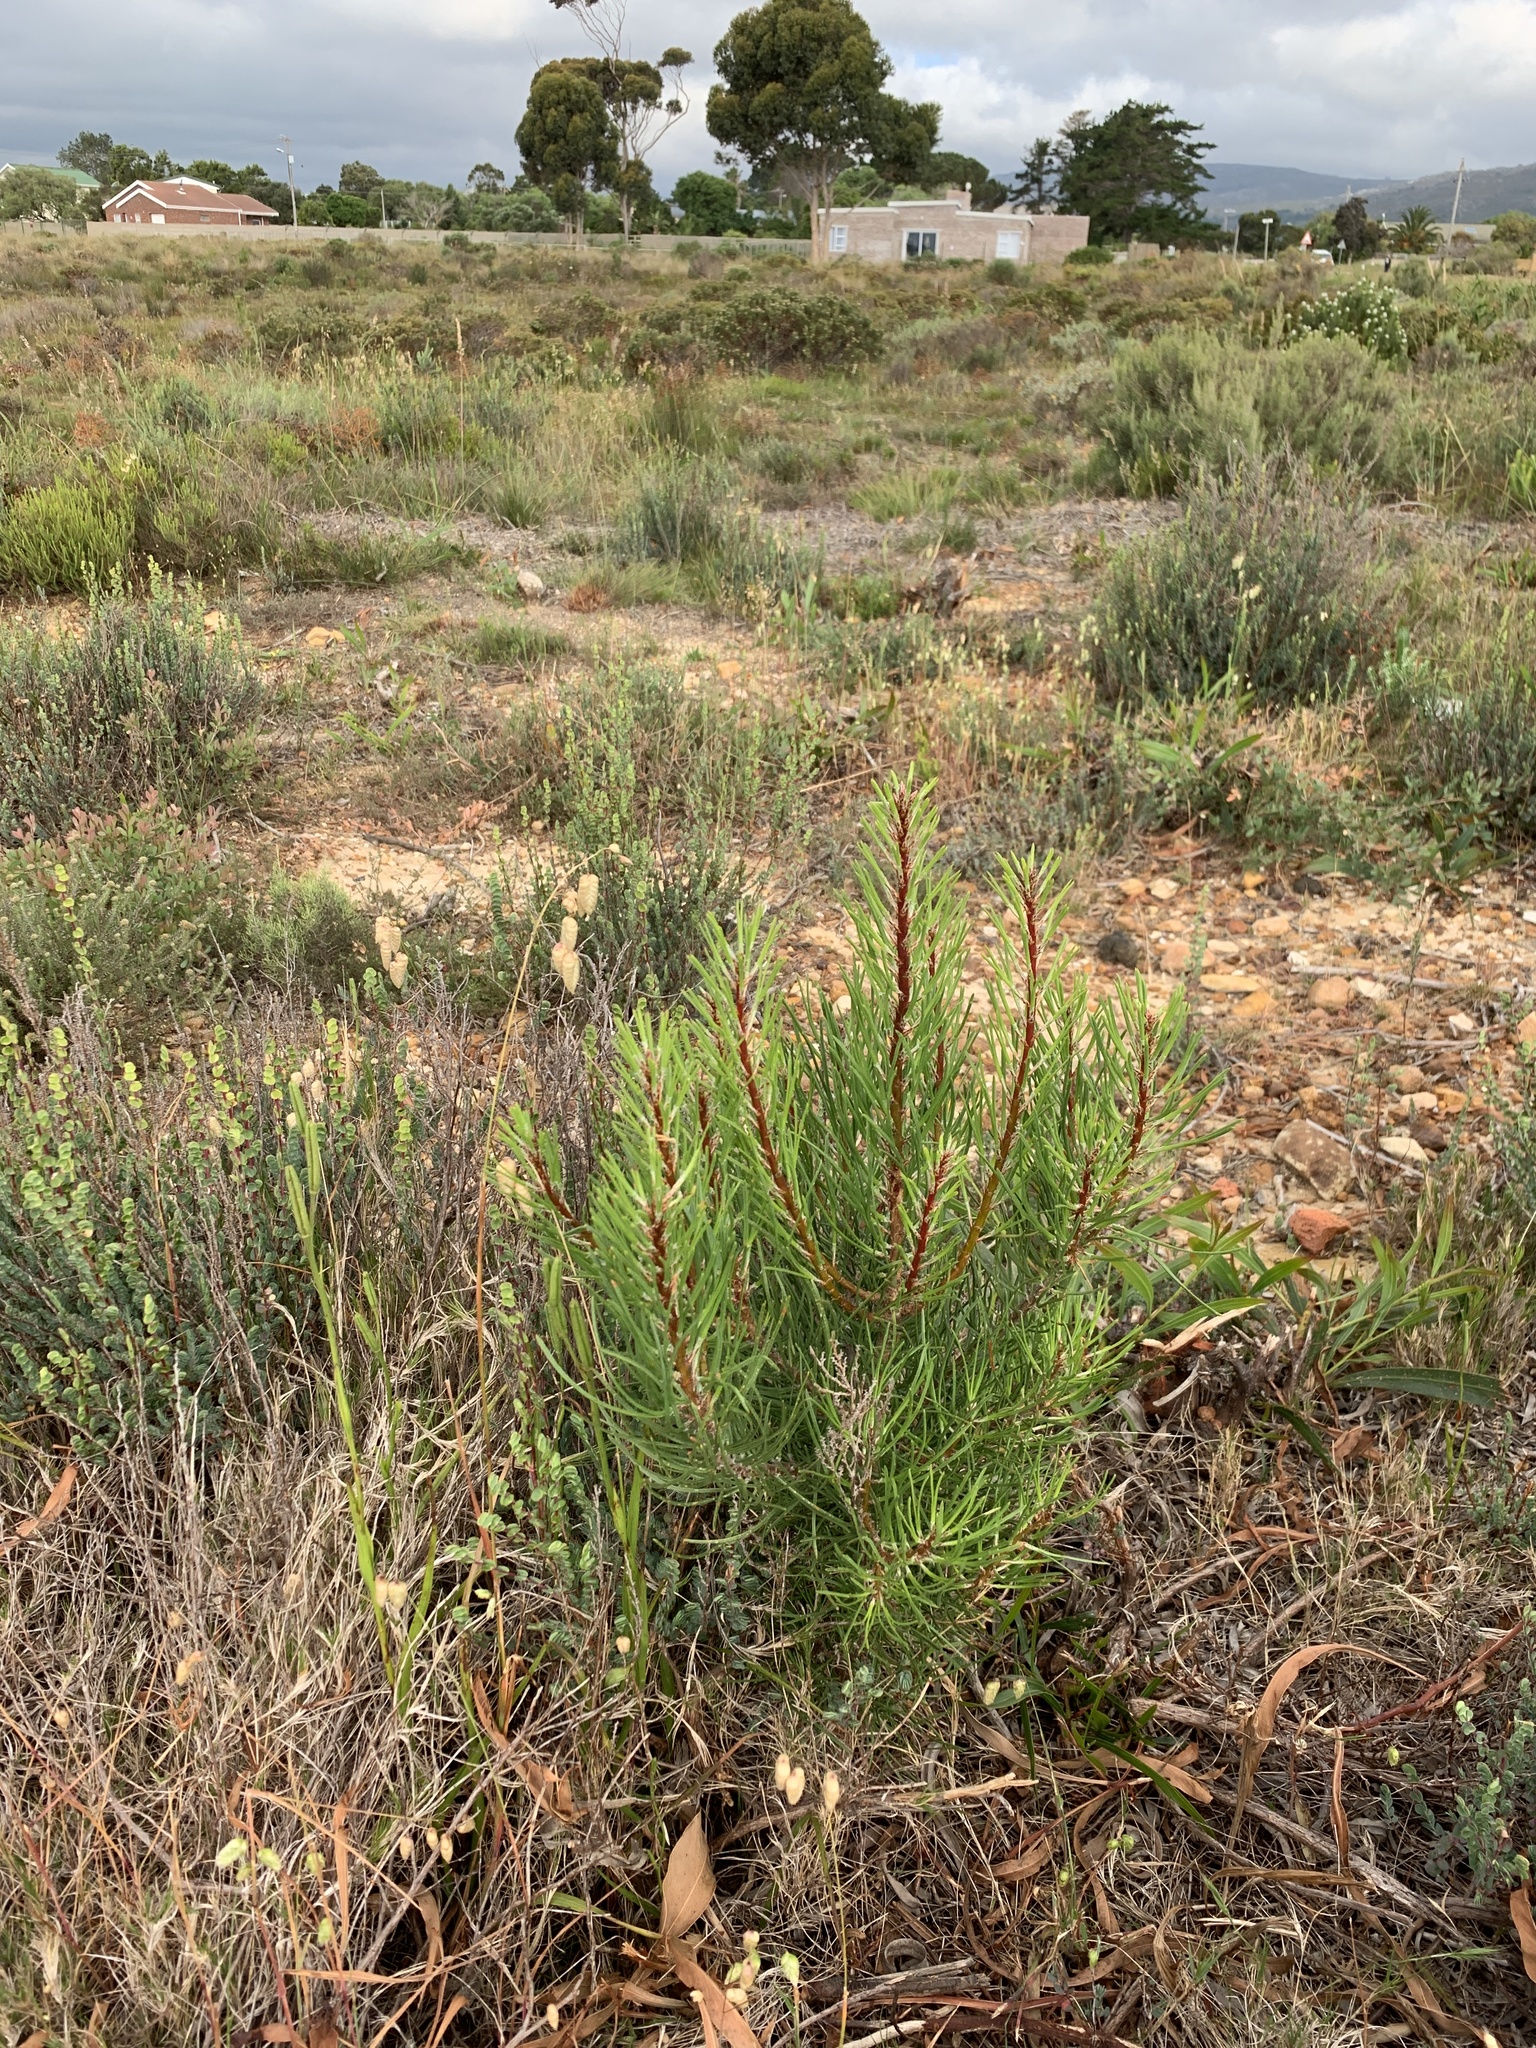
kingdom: Plantae
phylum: Tracheophyta
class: Pinopsida
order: Pinales
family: Pinaceae
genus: Pinus
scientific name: Pinus pinaster
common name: Maritime pine
